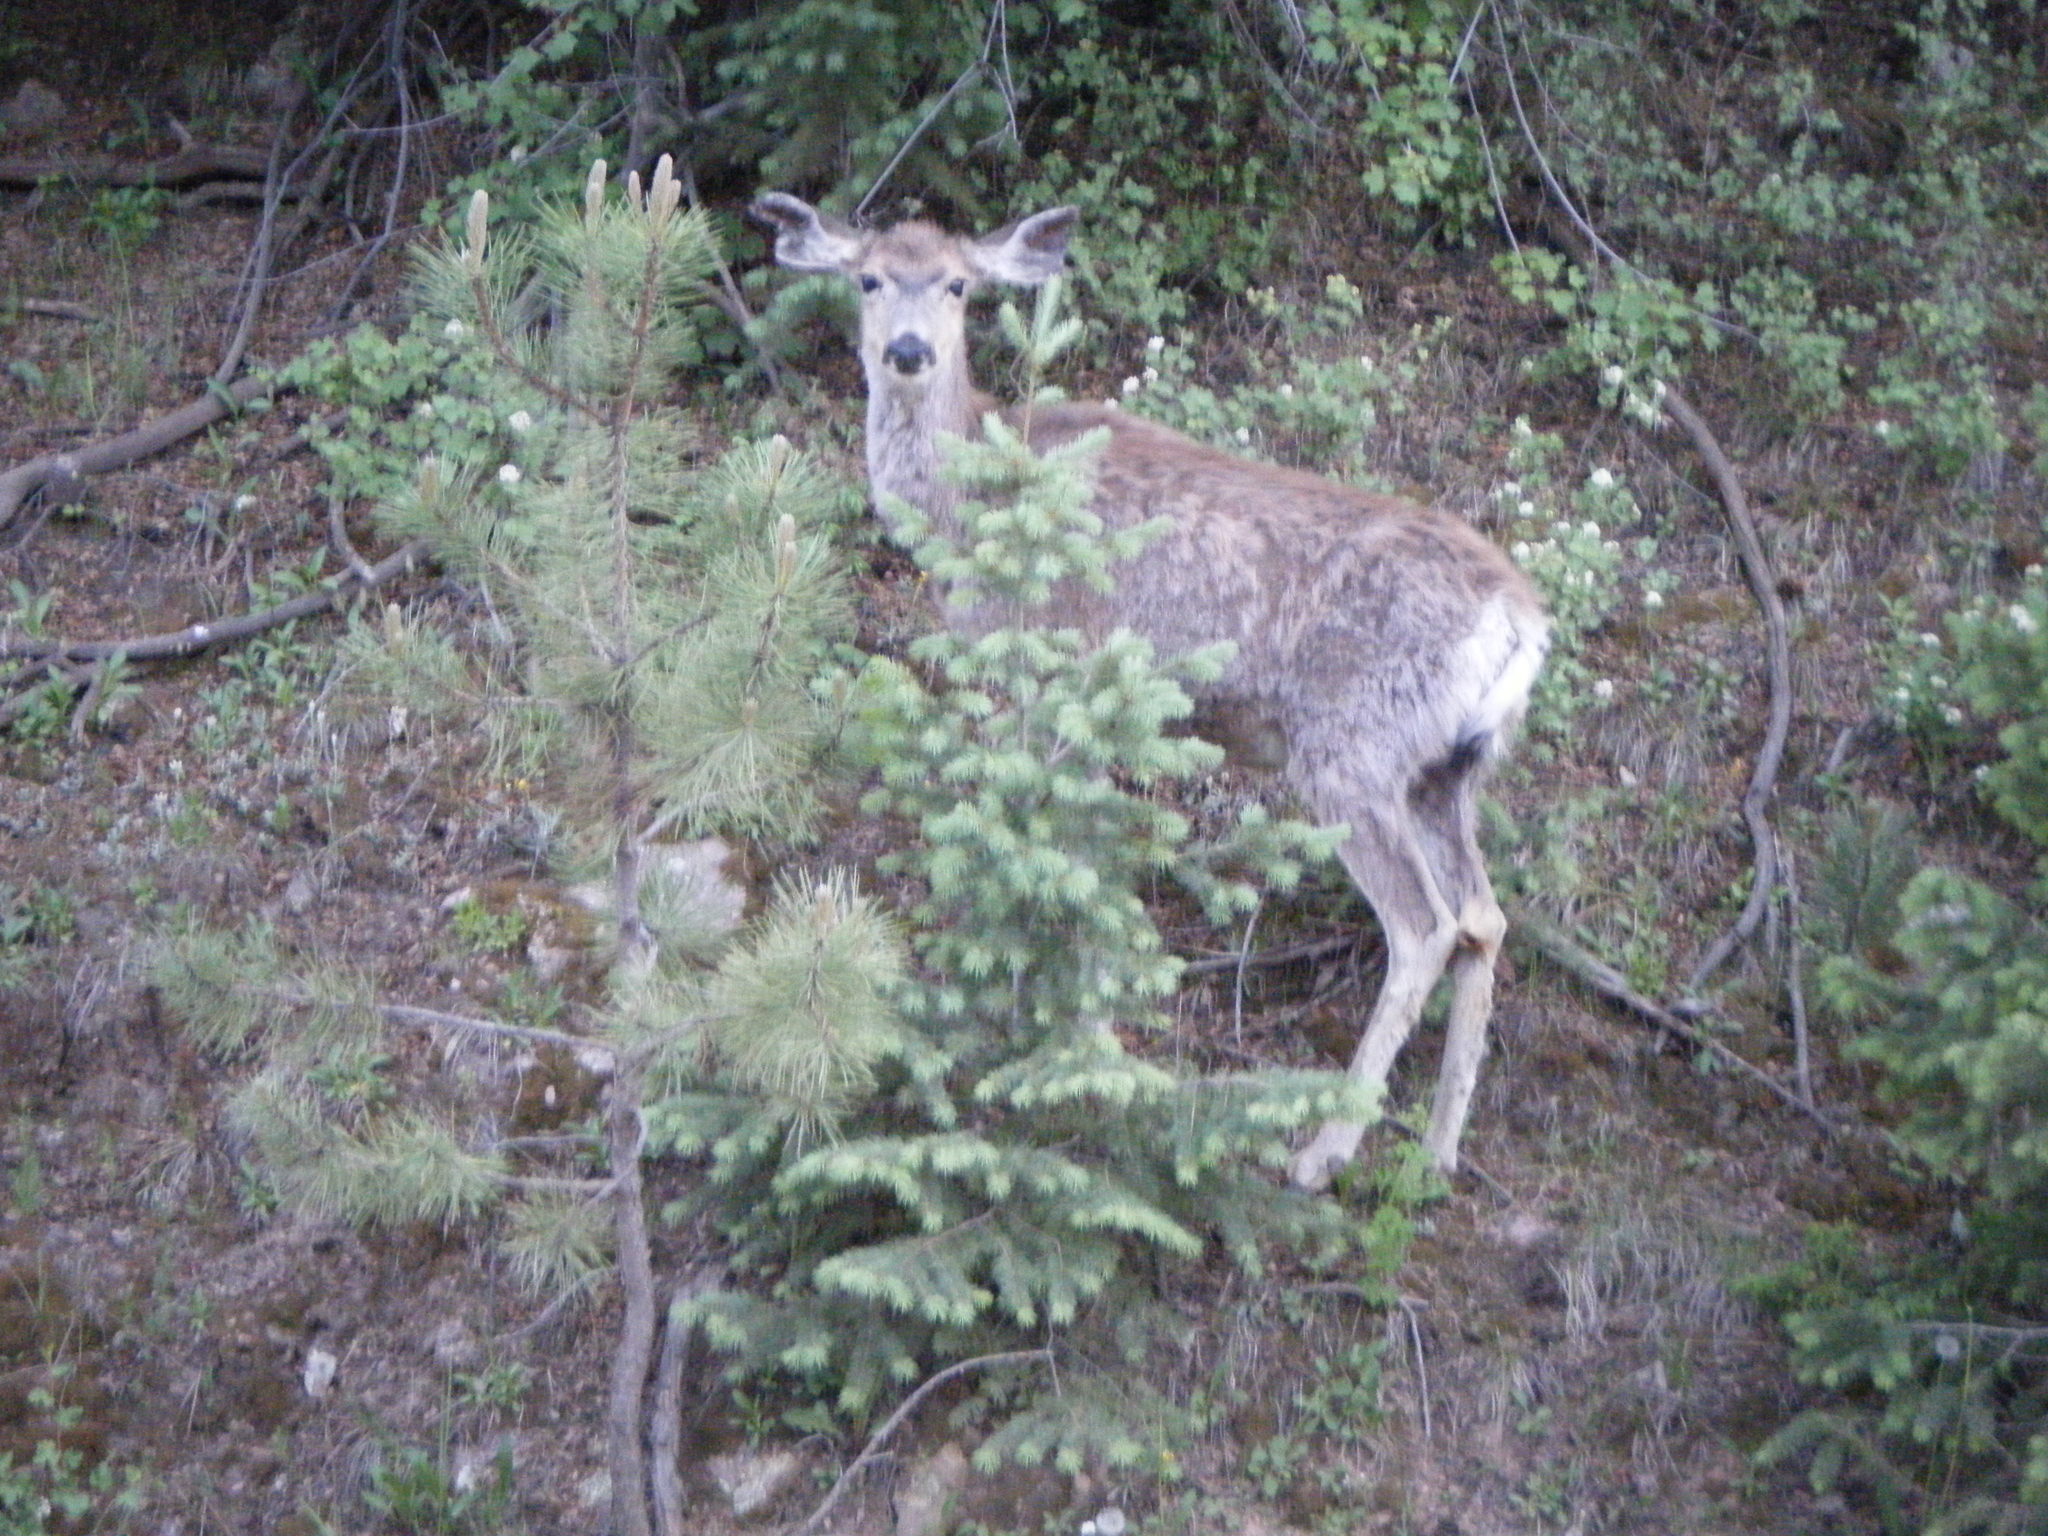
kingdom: Animalia
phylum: Chordata
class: Mammalia
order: Artiodactyla
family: Cervidae
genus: Odocoileus
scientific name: Odocoileus hemionus
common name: Mule deer
